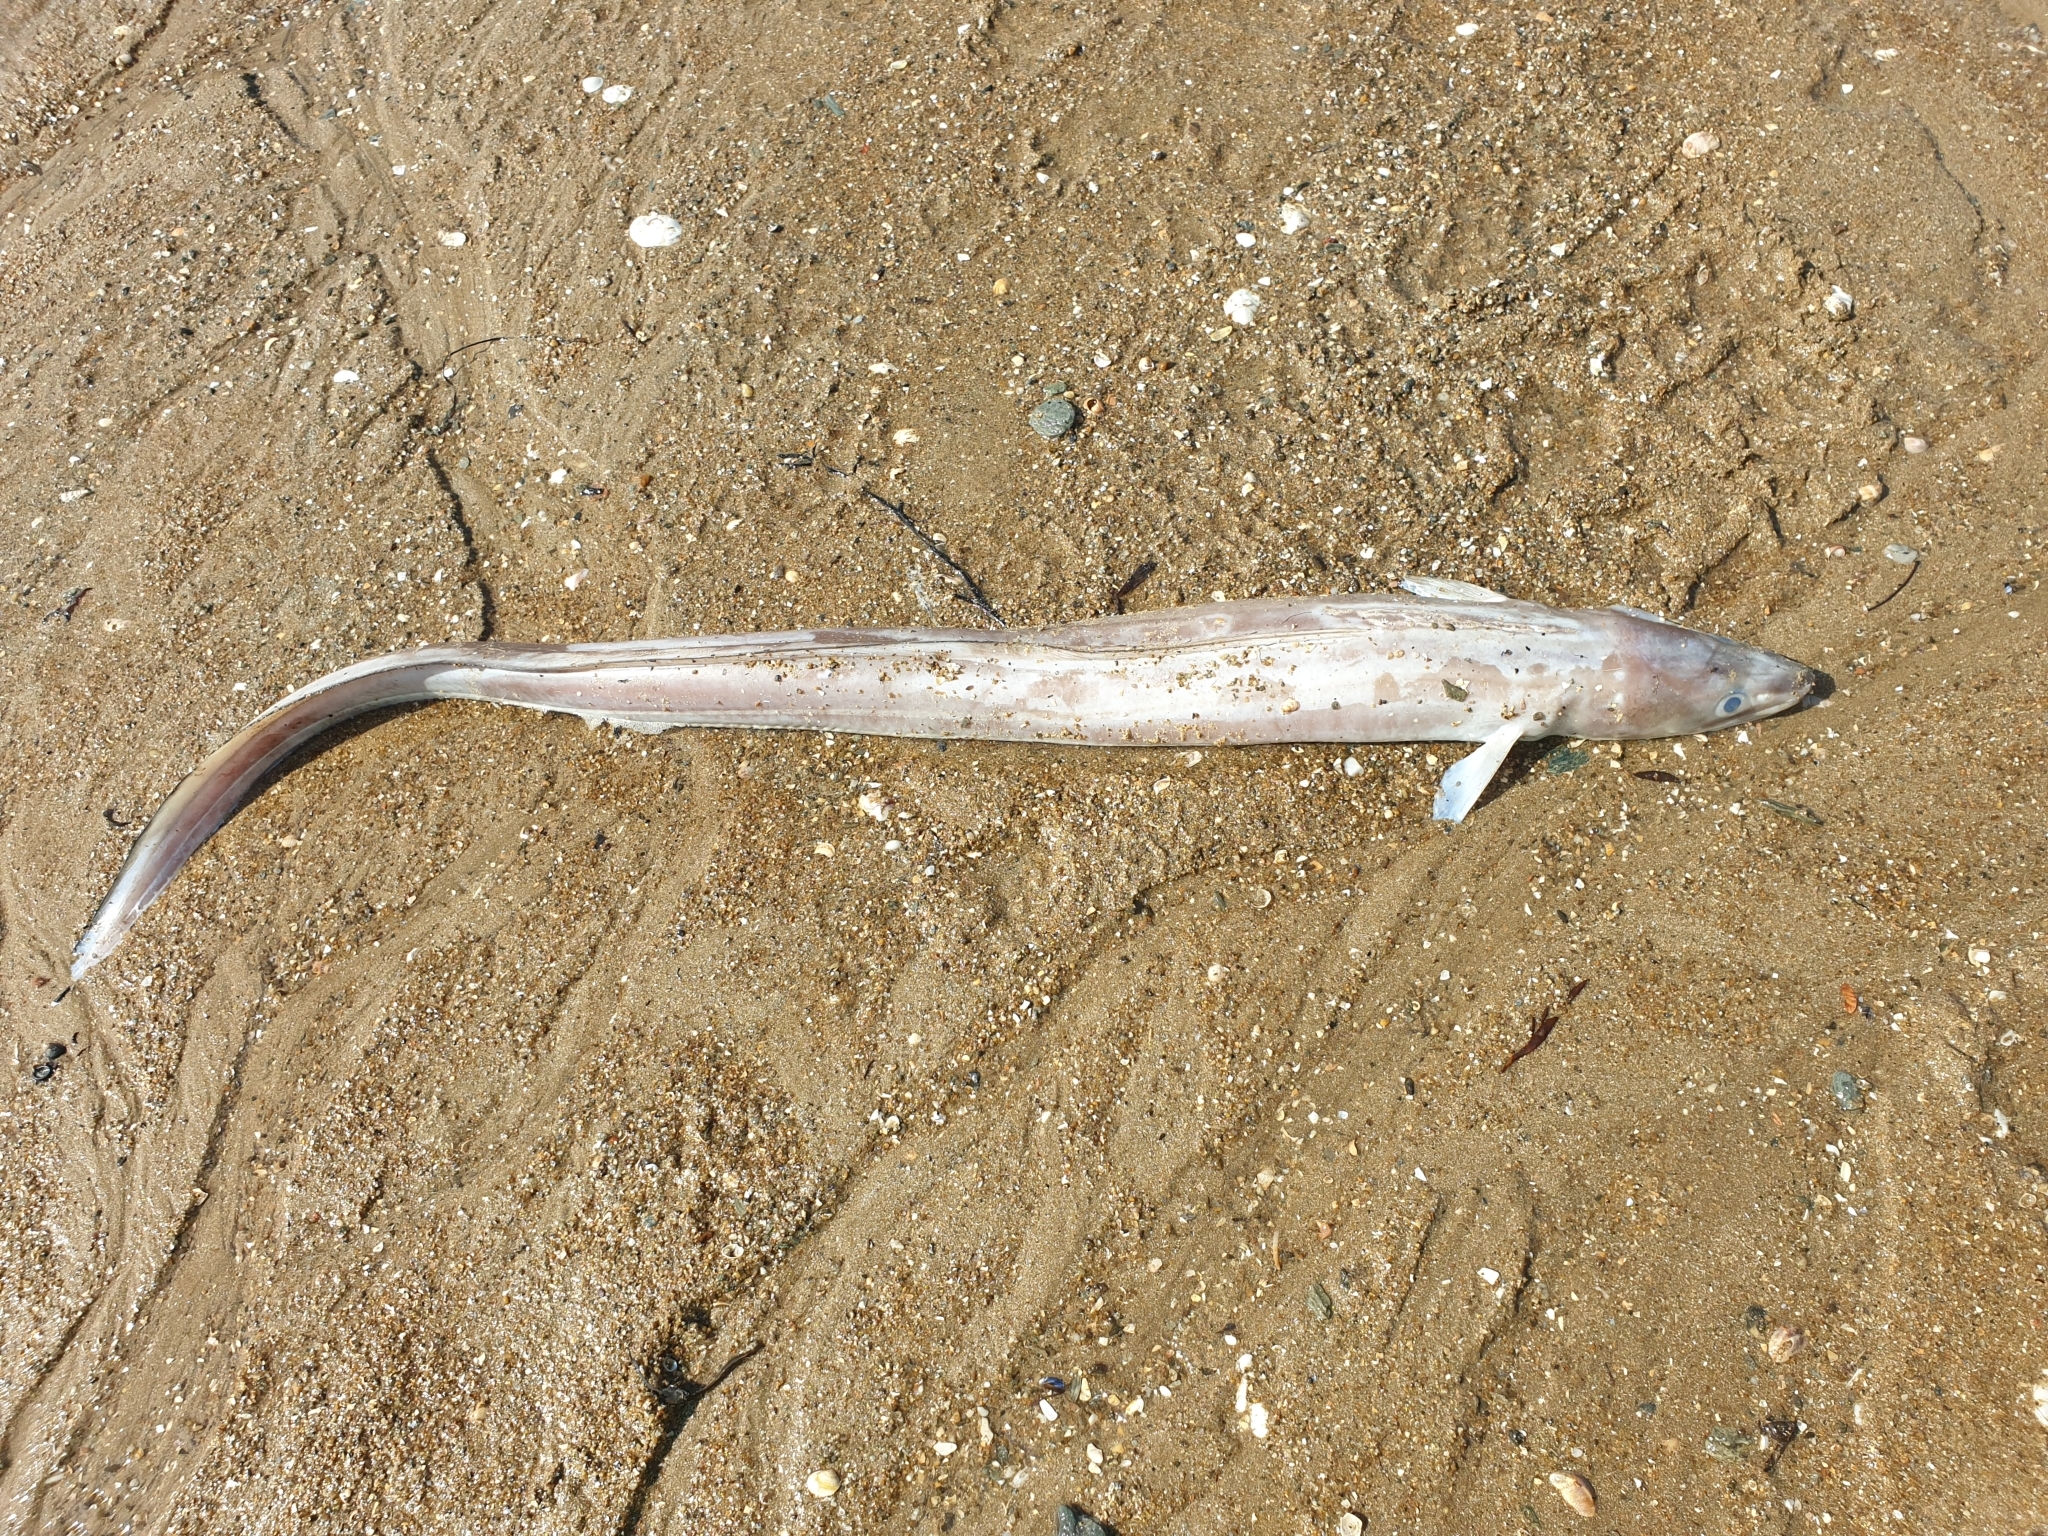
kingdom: Animalia
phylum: Chordata
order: Anguilliformes
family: Congridae
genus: Conger
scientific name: Conger conger
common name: Conger eel
